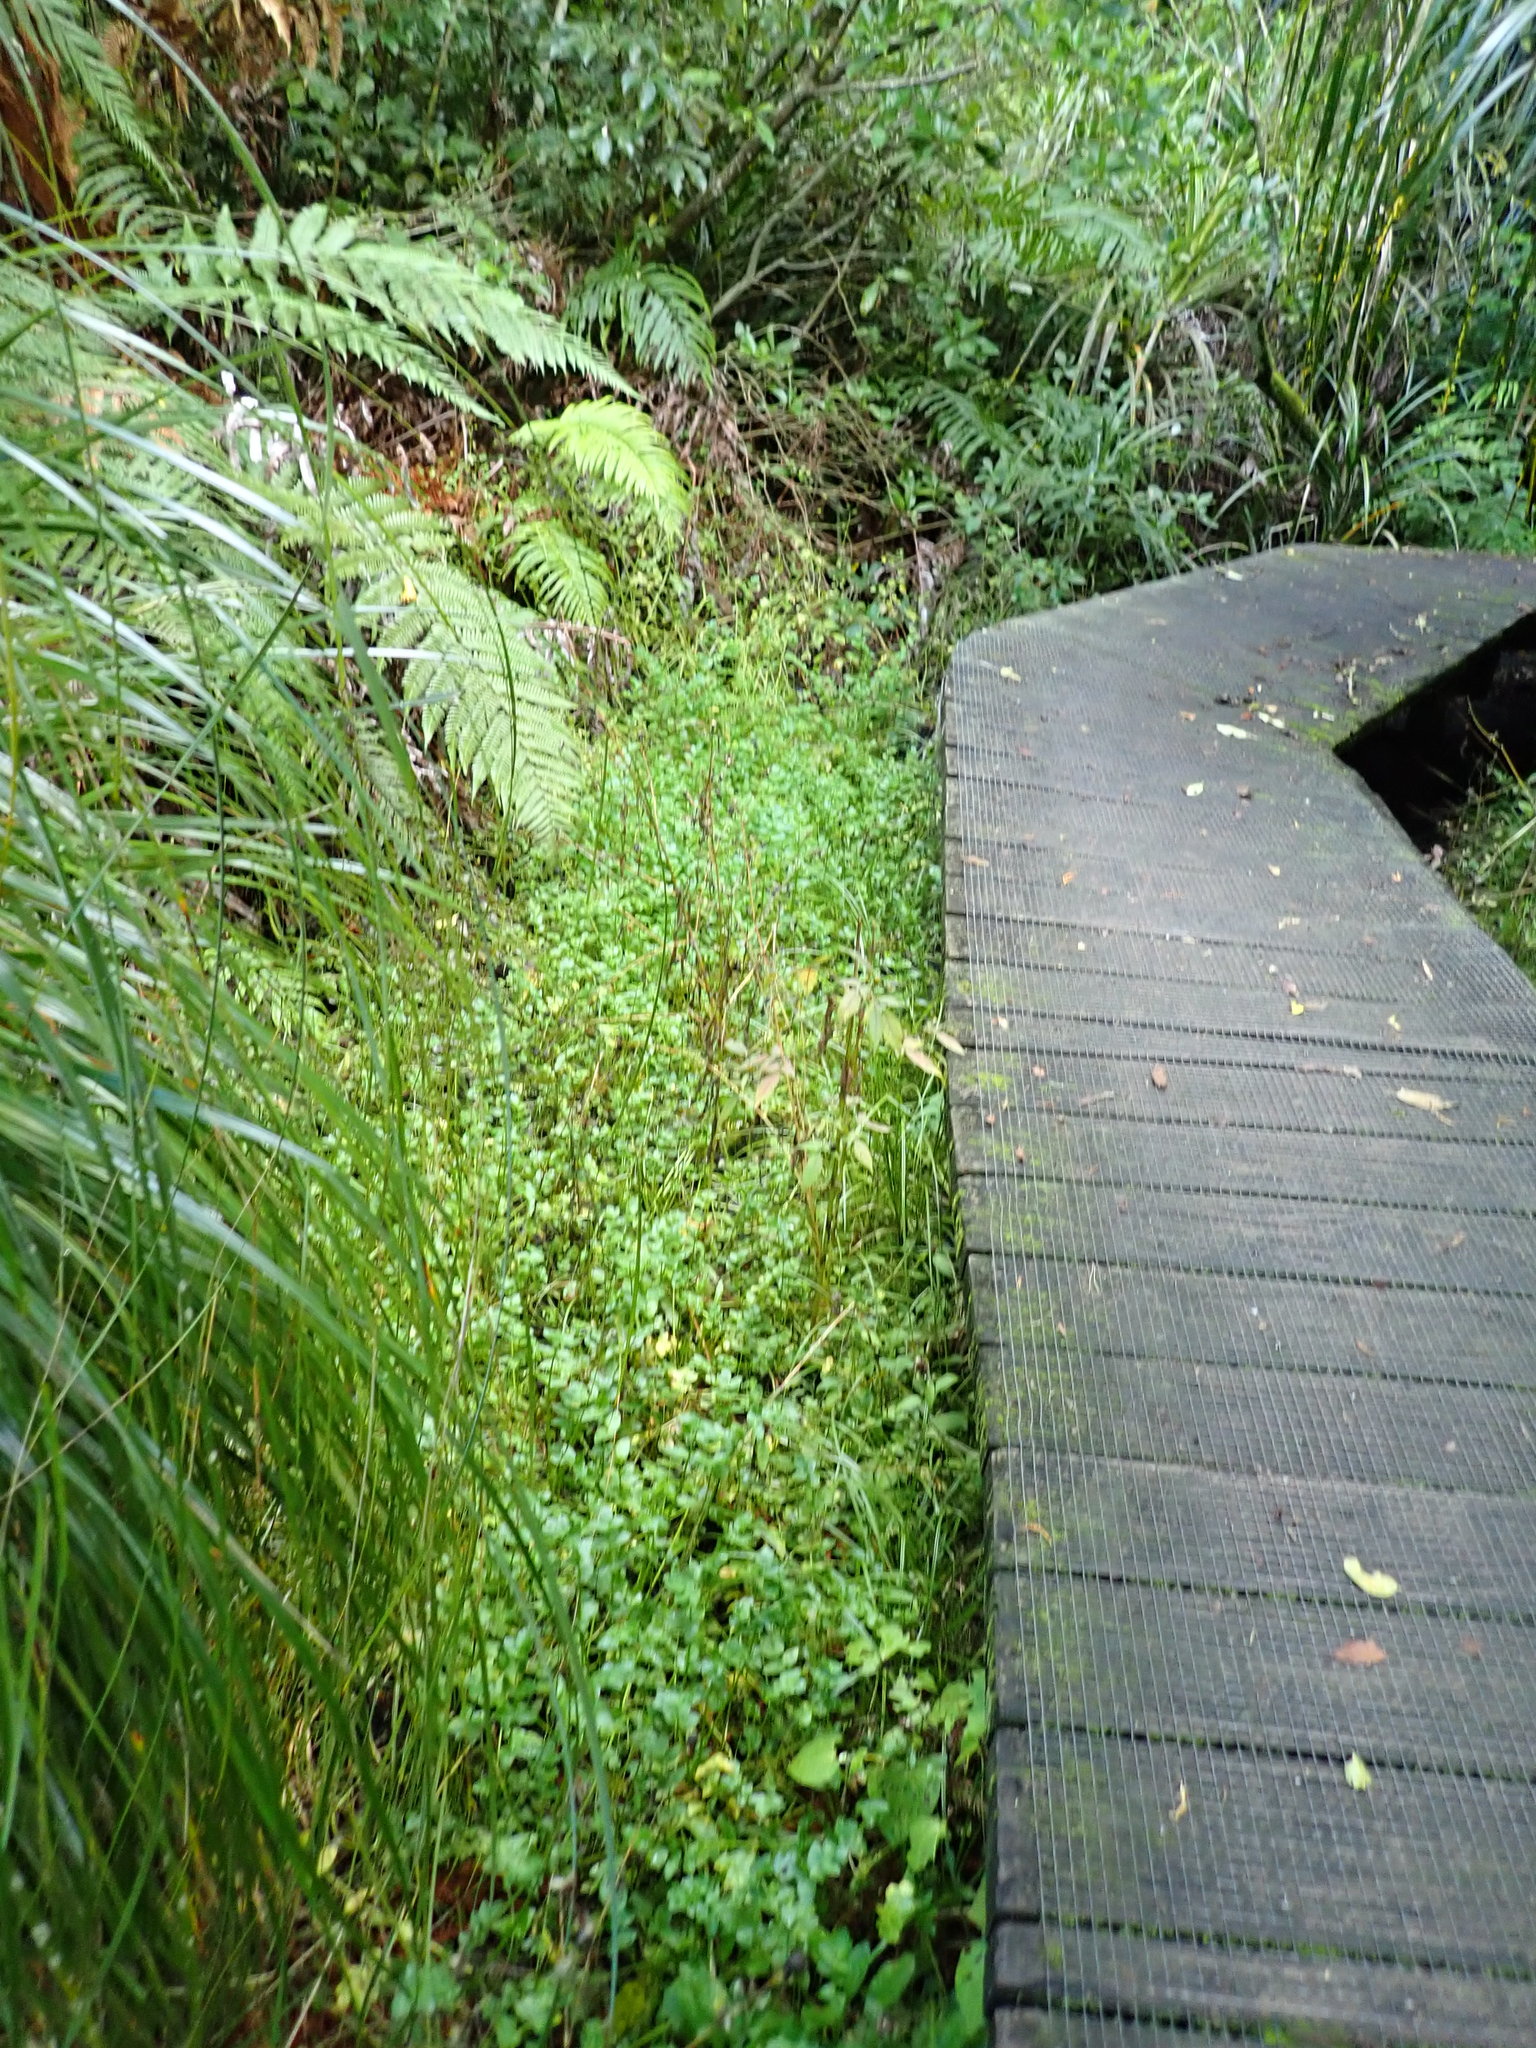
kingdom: Plantae
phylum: Tracheophyta
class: Magnoliopsida
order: Apiales
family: Apiaceae
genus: Helosciadium
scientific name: Helosciadium nodiflorum
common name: Fool's-watercress
